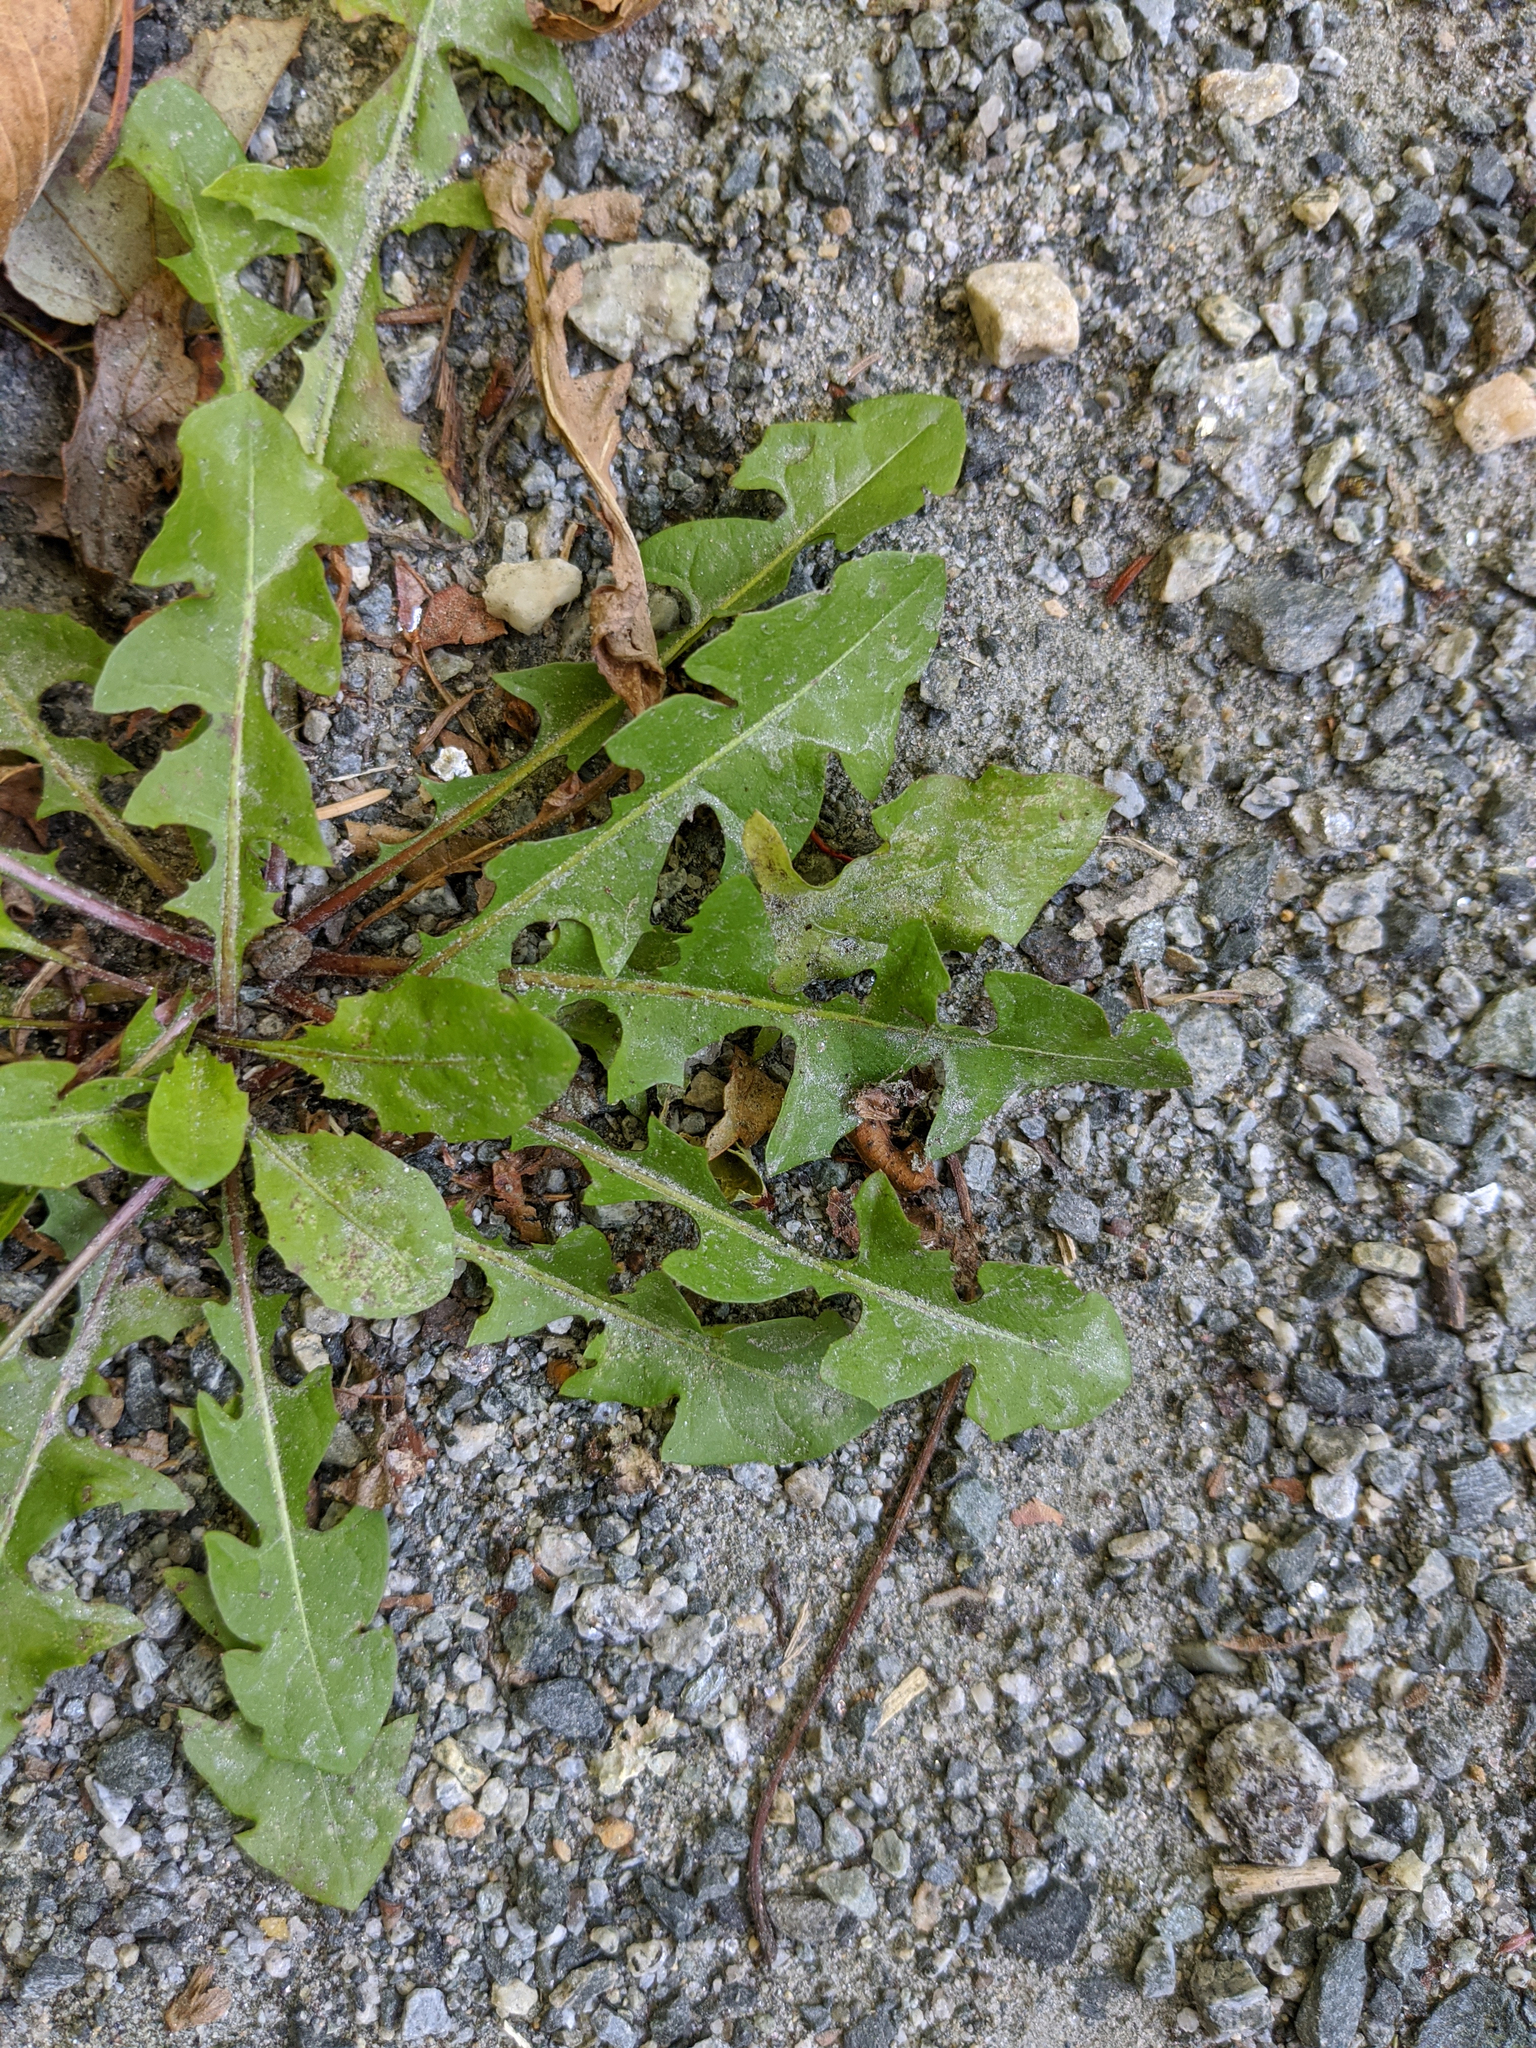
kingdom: Plantae
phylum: Tracheophyta
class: Magnoliopsida
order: Asterales
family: Asteraceae
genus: Taraxacum
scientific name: Taraxacum officinale
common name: Common dandelion
